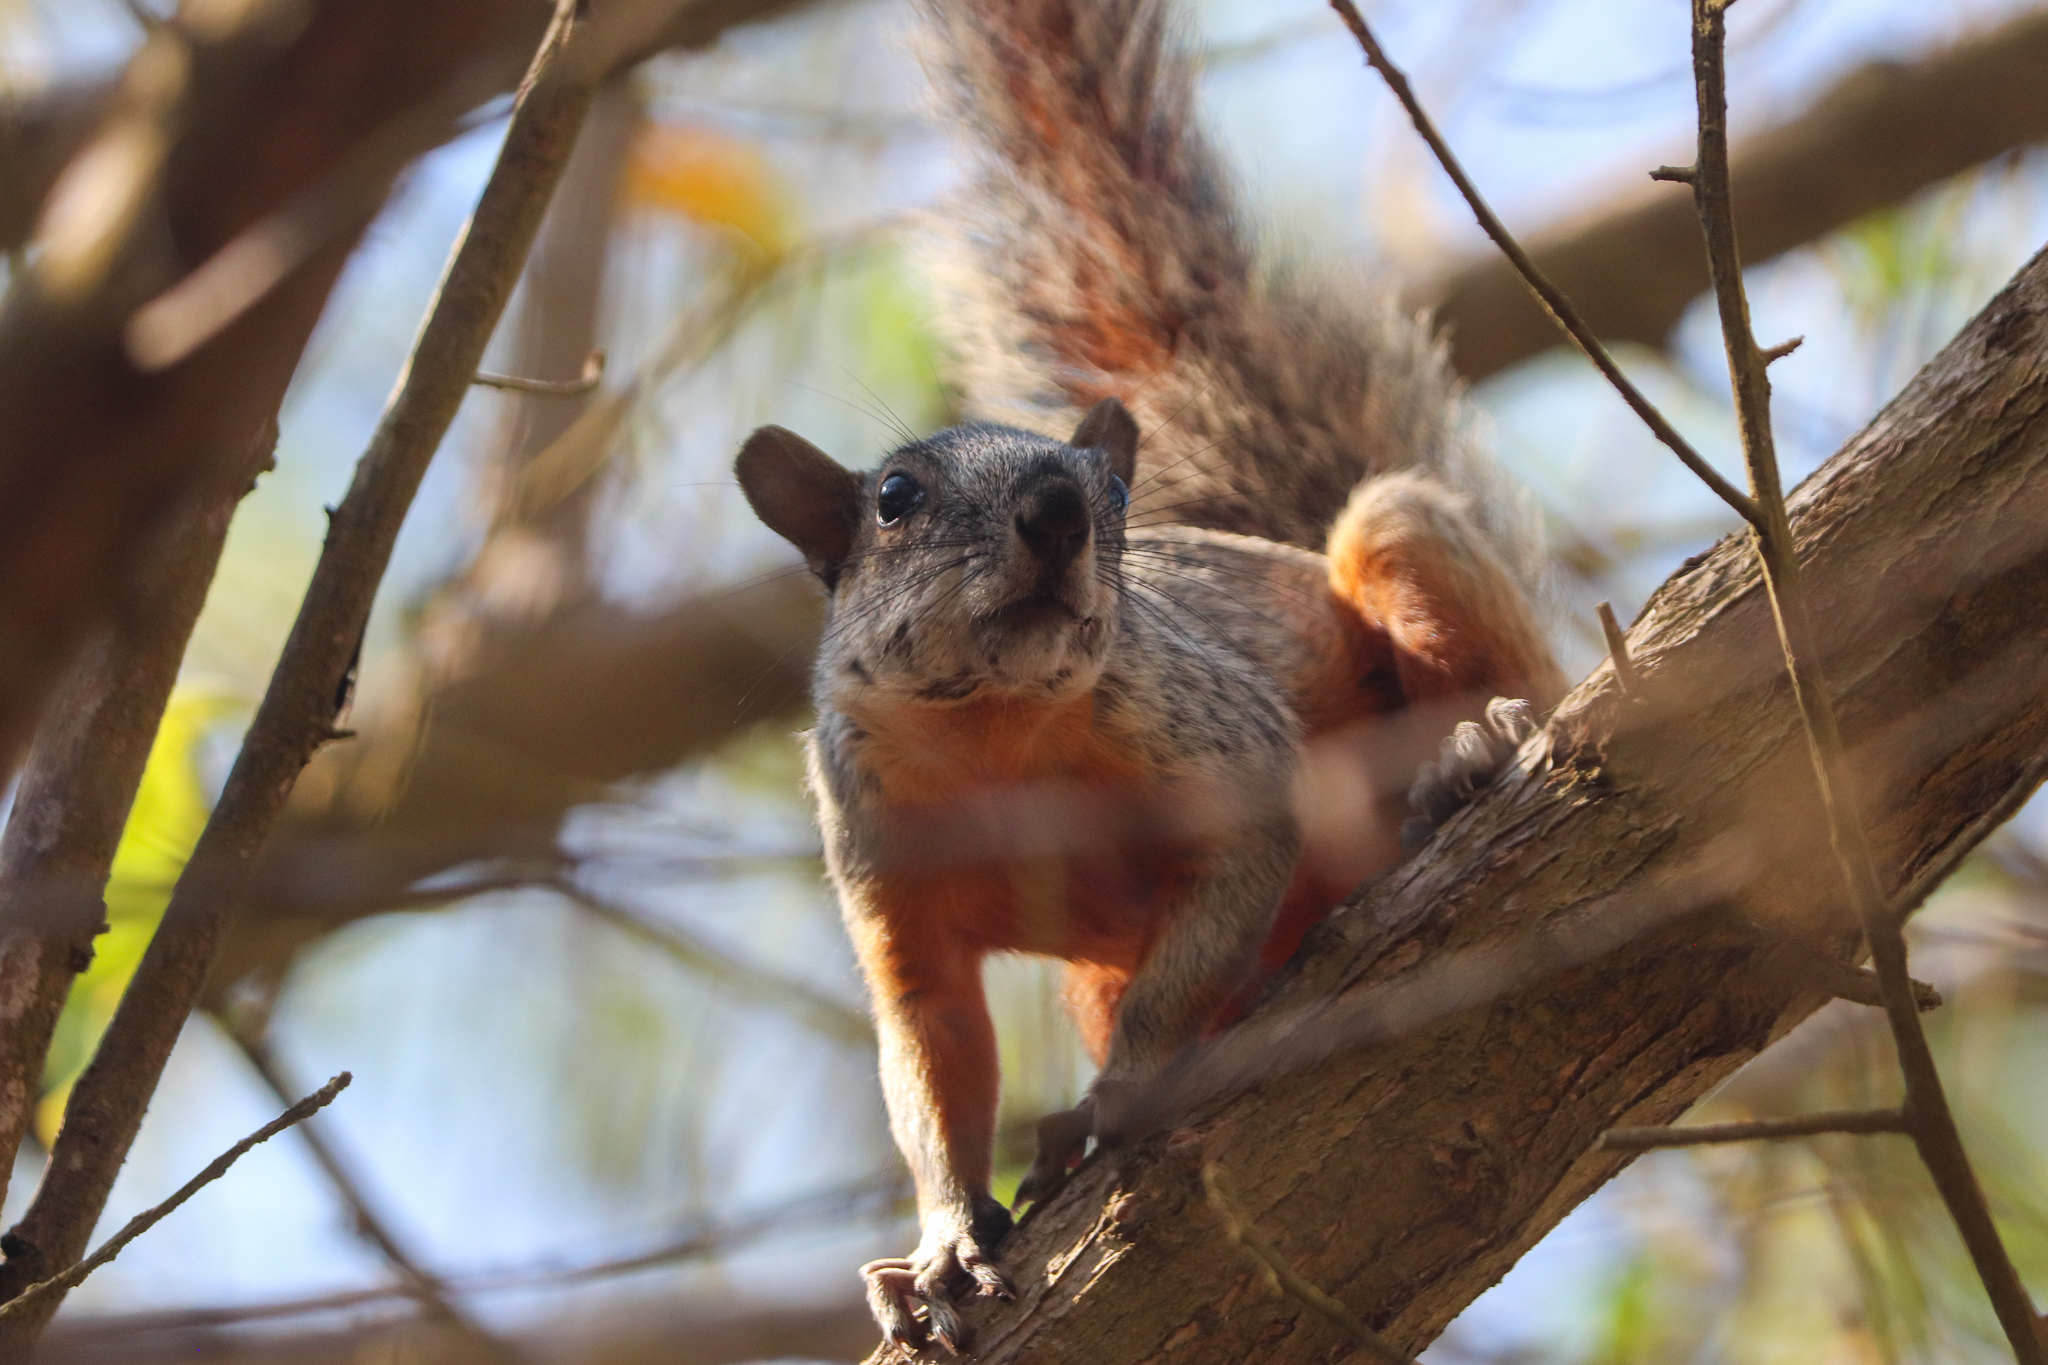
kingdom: Animalia
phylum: Chordata
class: Mammalia
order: Rodentia
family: Sciuridae
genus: Sciurus
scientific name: Sciurus aureogaster
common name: Red-bellied squirrel
